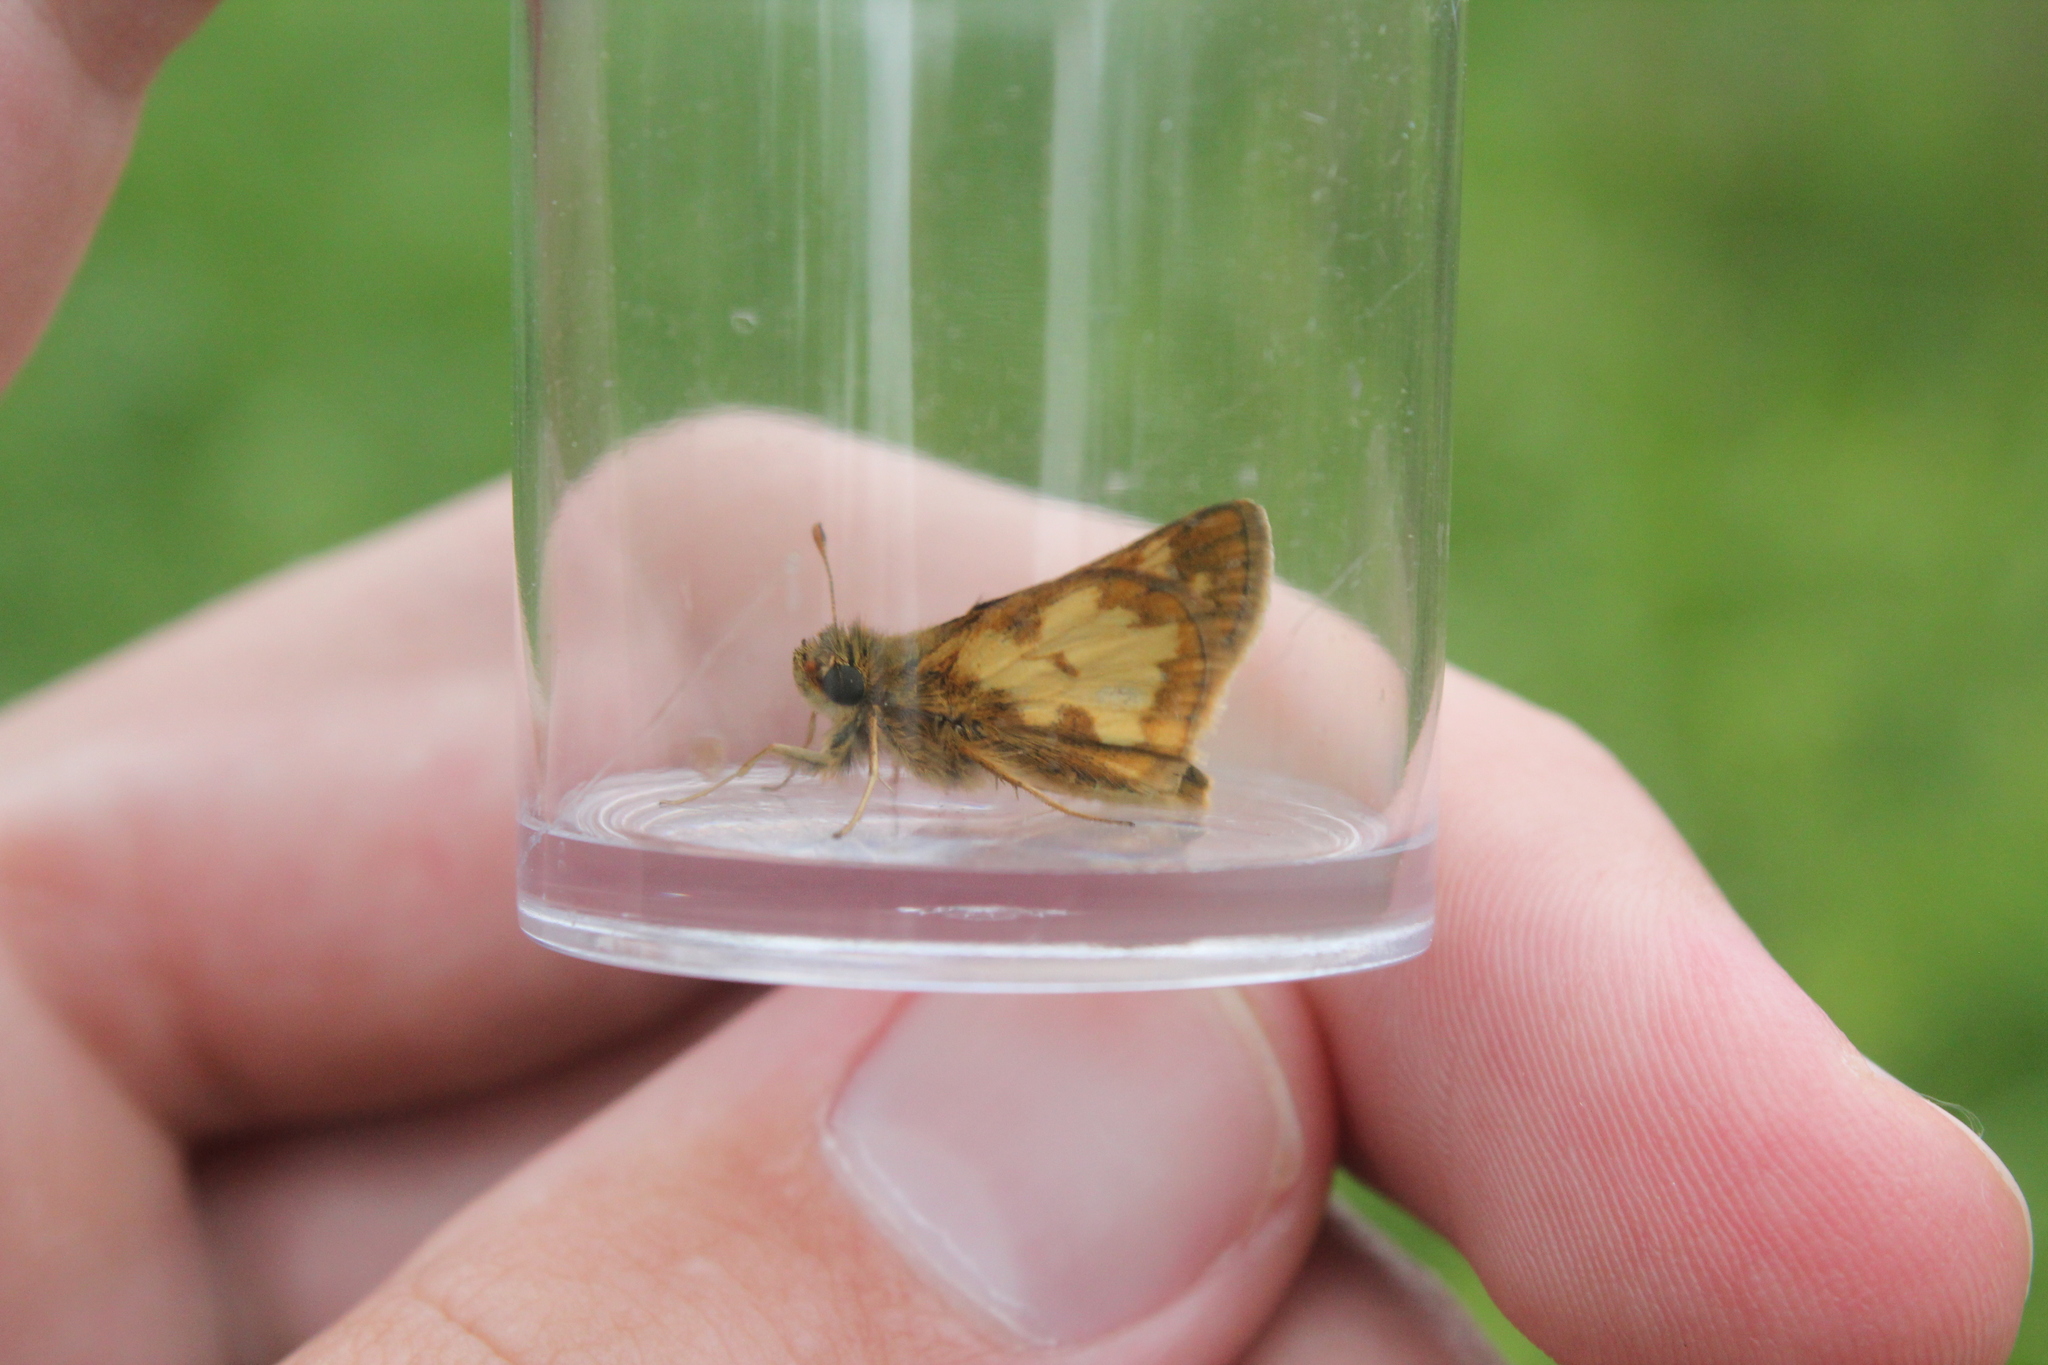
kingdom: Animalia
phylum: Arthropoda
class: Insecta
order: Lepidoptera
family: Hesperiidae
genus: Polites
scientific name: Polites coras
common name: Peck's skipper
